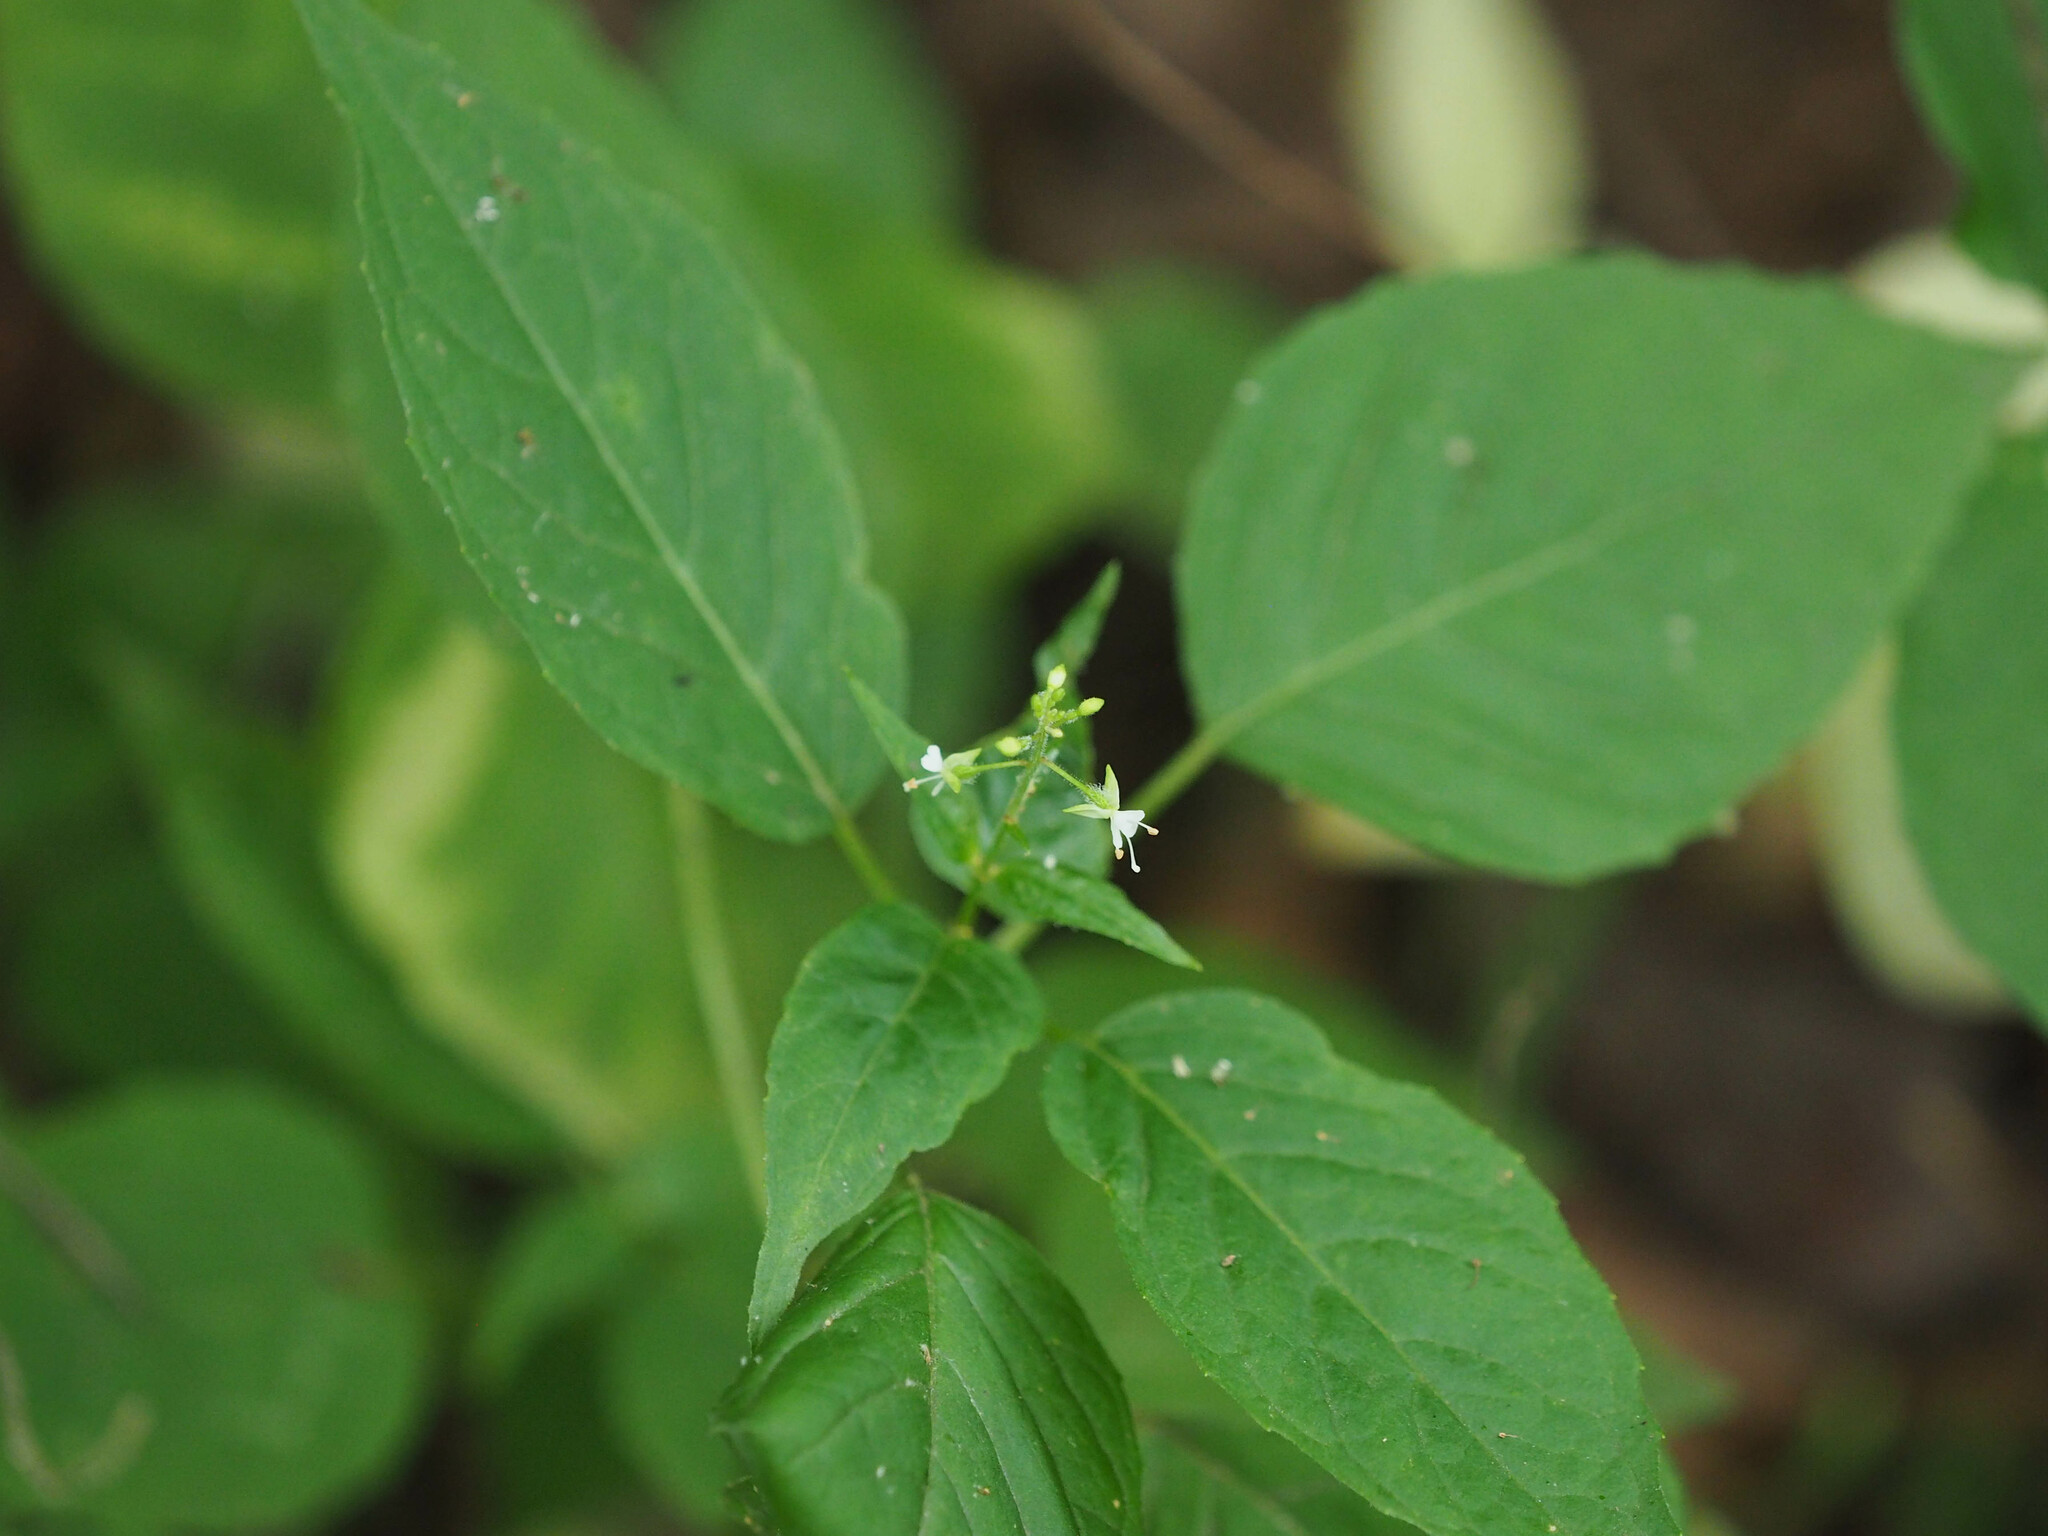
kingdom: Plantae
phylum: Tracheophyta
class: Magnoliopsida
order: Myrtales
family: Onagraceae
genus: Circaea
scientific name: Circaea canadensis
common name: Broad-leaved enchanter's nightshade
